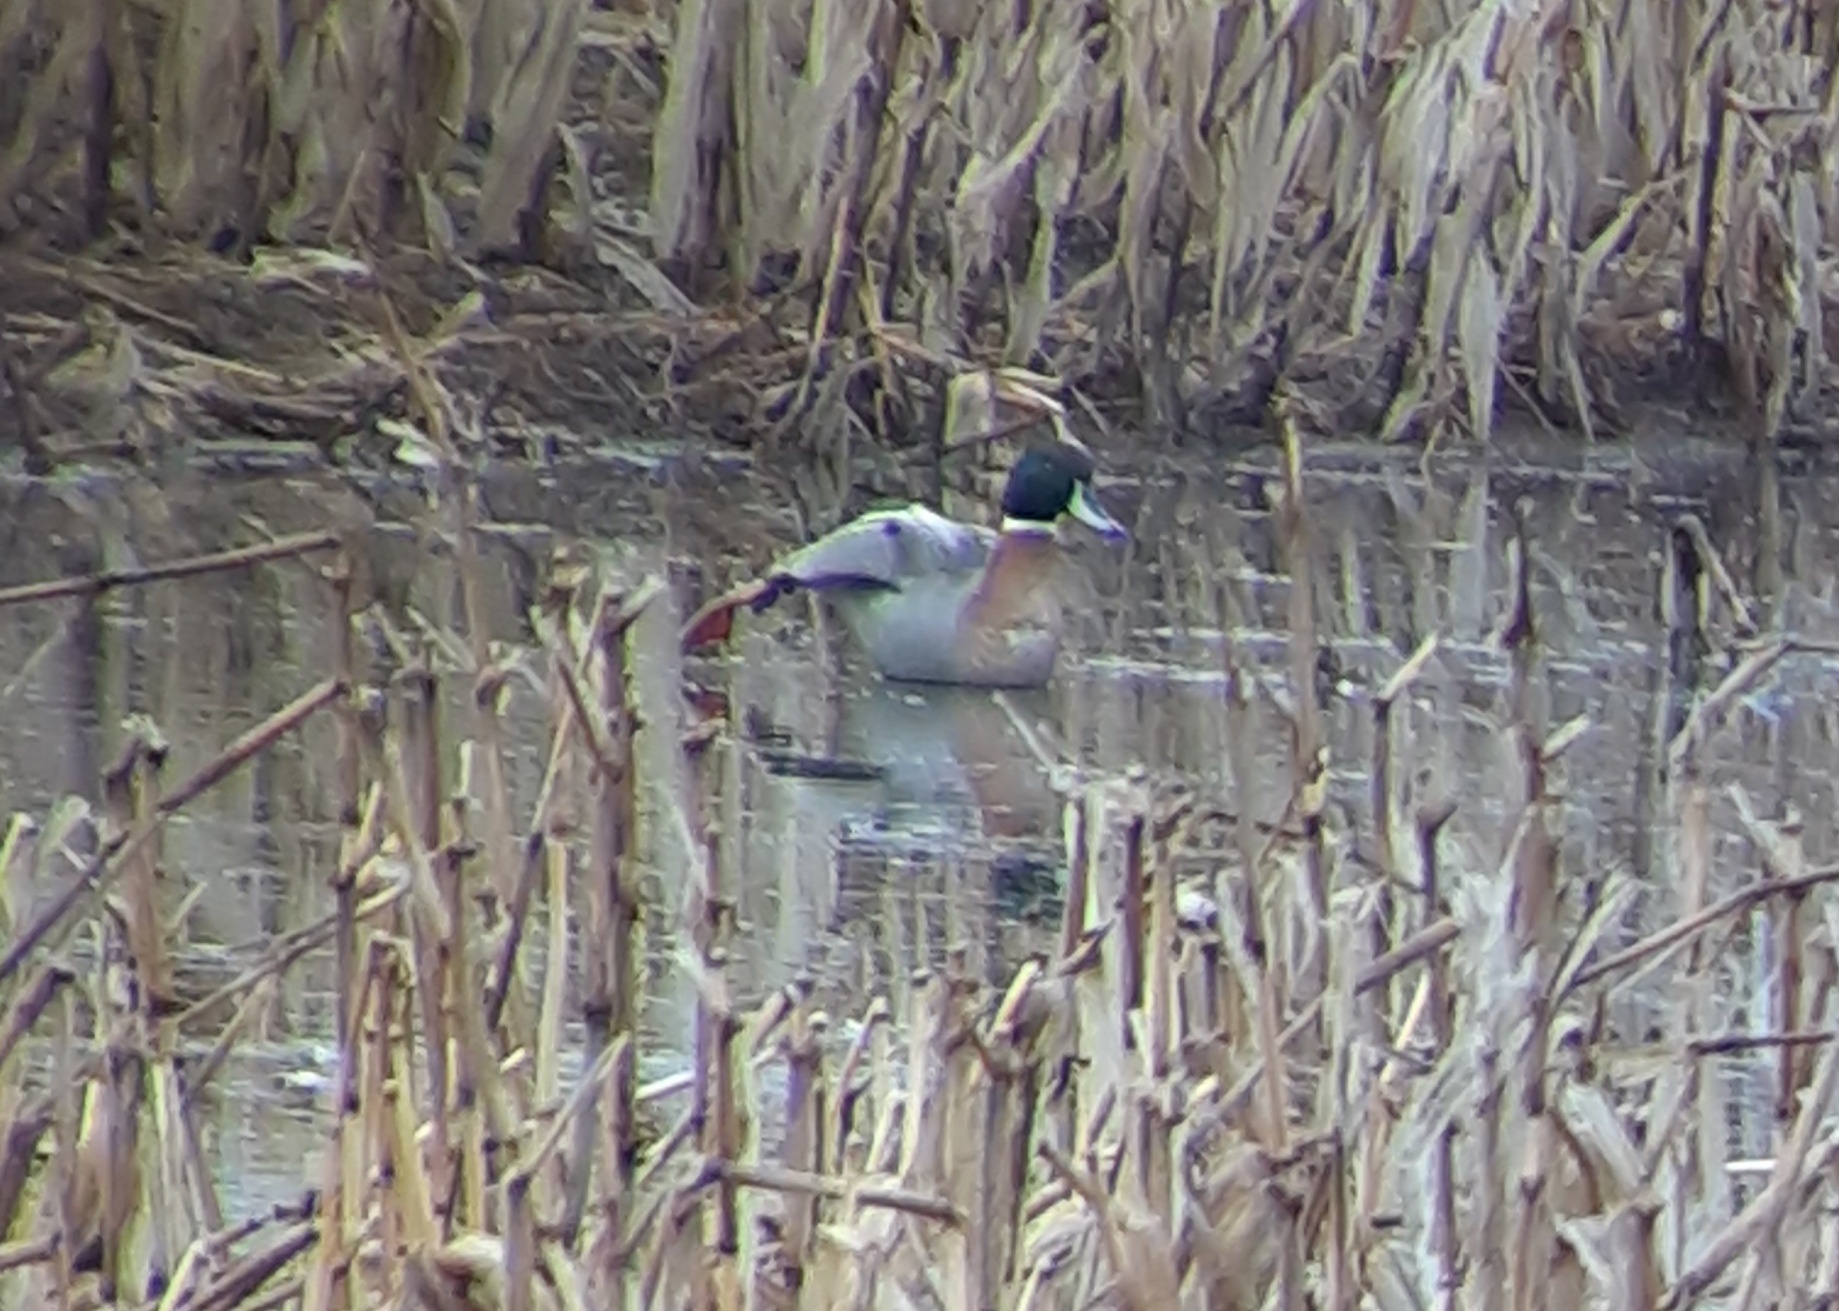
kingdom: Animalia
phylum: Chordata
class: Aves
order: Anseriformes
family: Anatidae
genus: Anas
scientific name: Anas
